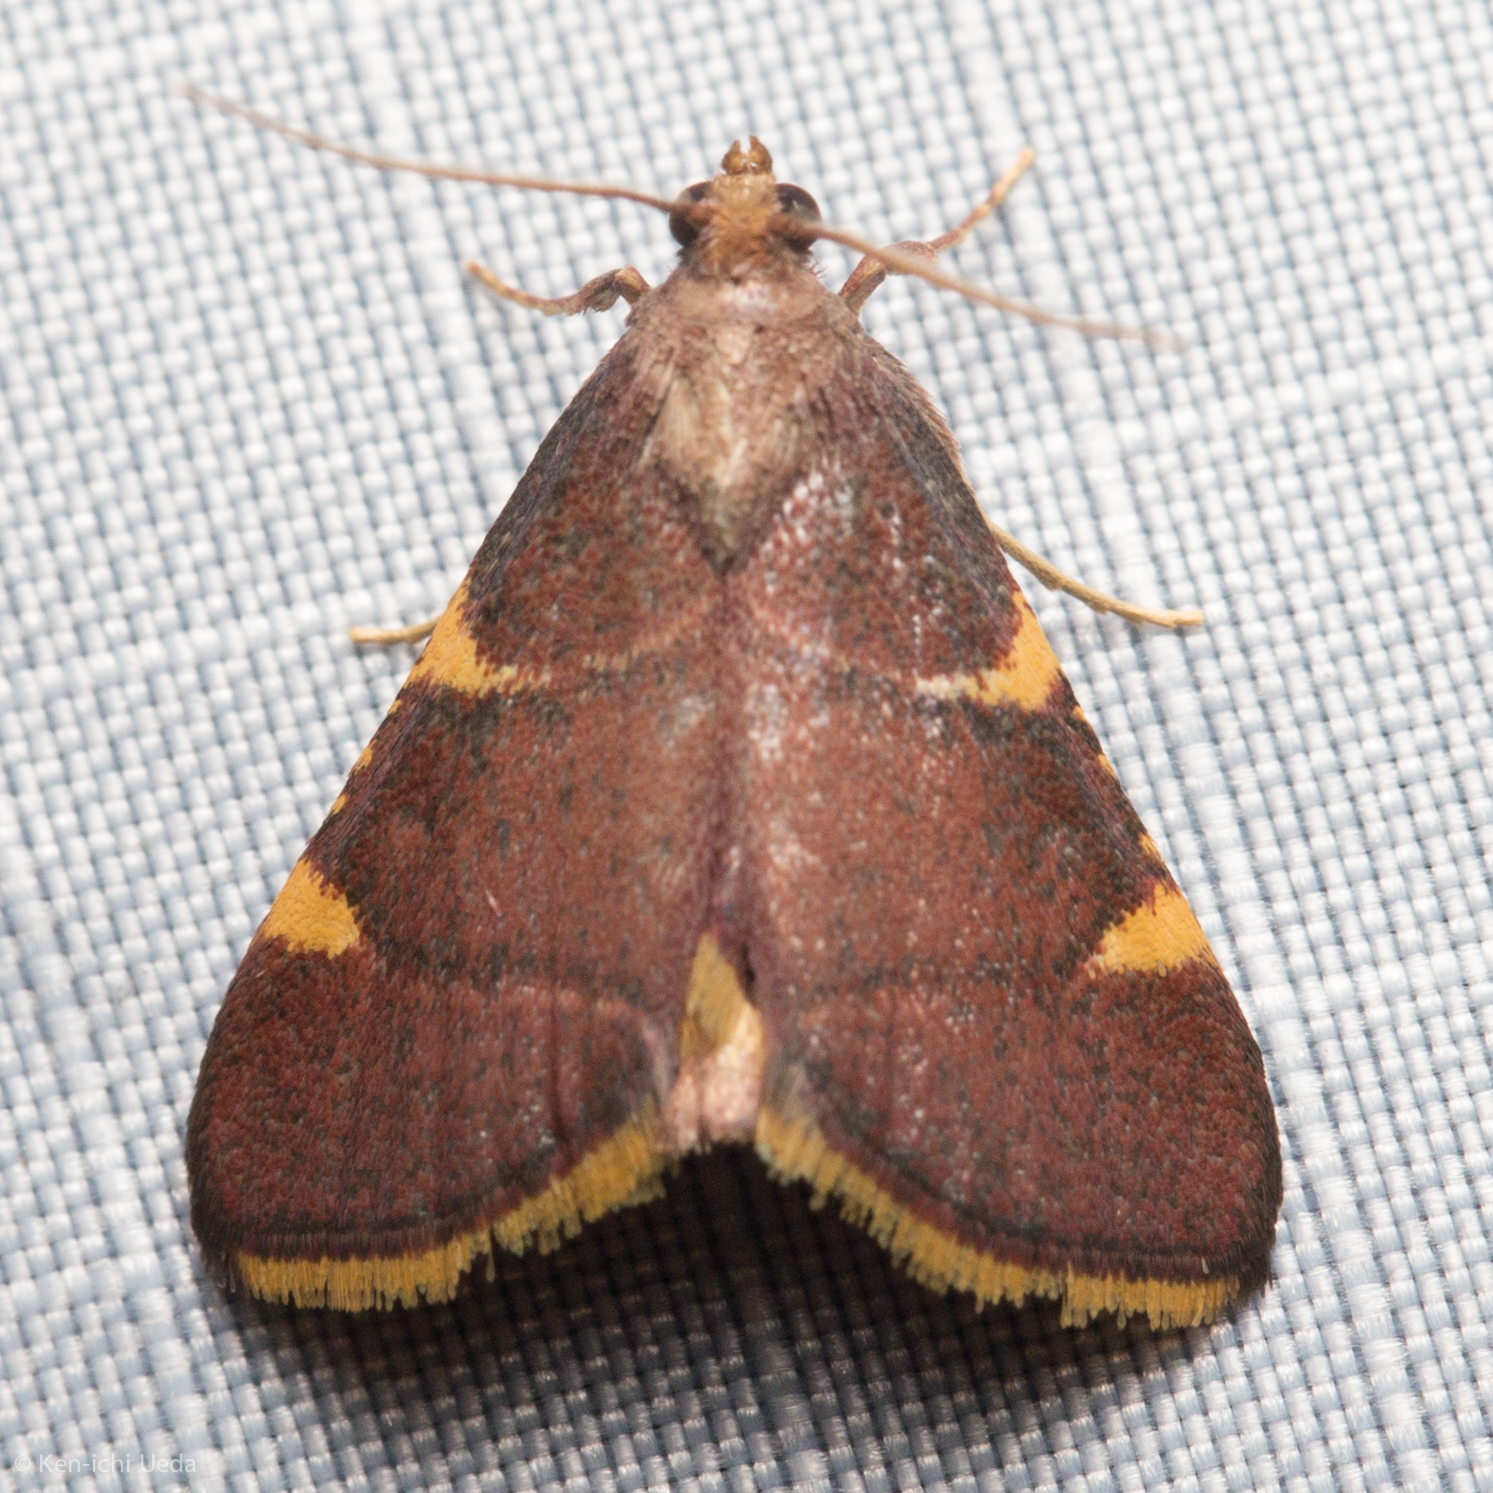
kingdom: Animalia
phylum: Arthropoda
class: Insecta
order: Lepidoptera
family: Pyralidae
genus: Hypsopygia
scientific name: Hypsopygia olinalis
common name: Yellow-fringed dolichomia moth
